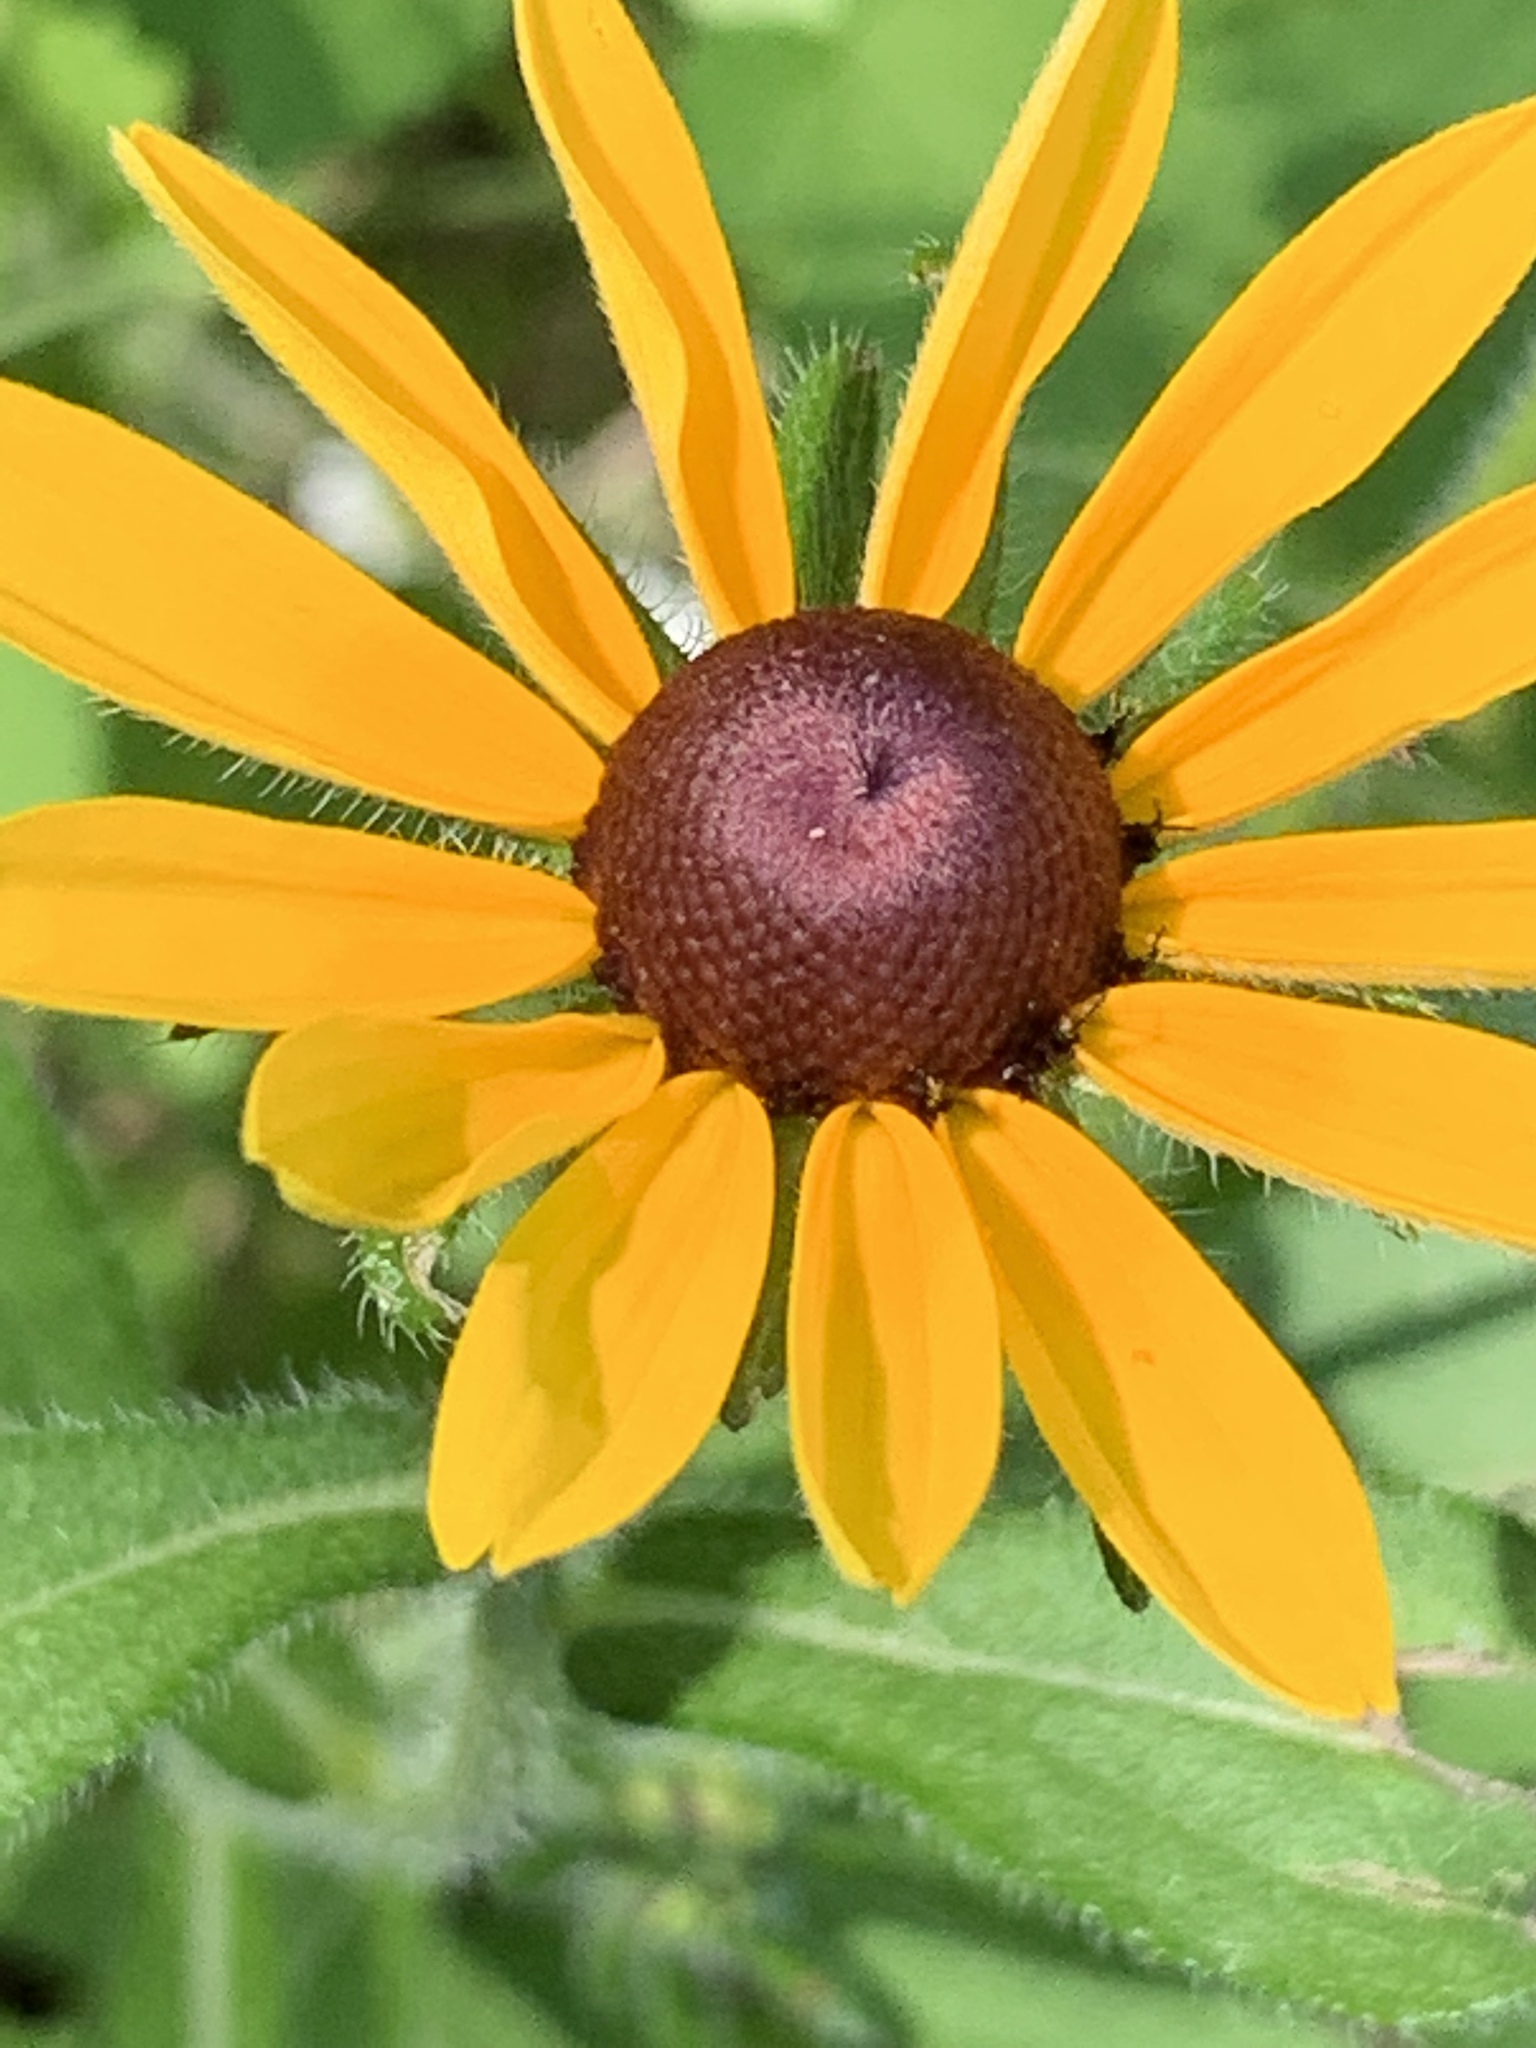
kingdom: Plantae
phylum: Tracheophyta
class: Magnoliopsida
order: Asterales
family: Asteraceae
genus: Rudbeckia
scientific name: Rudbeckia hirta
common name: Black-eyed-susan
